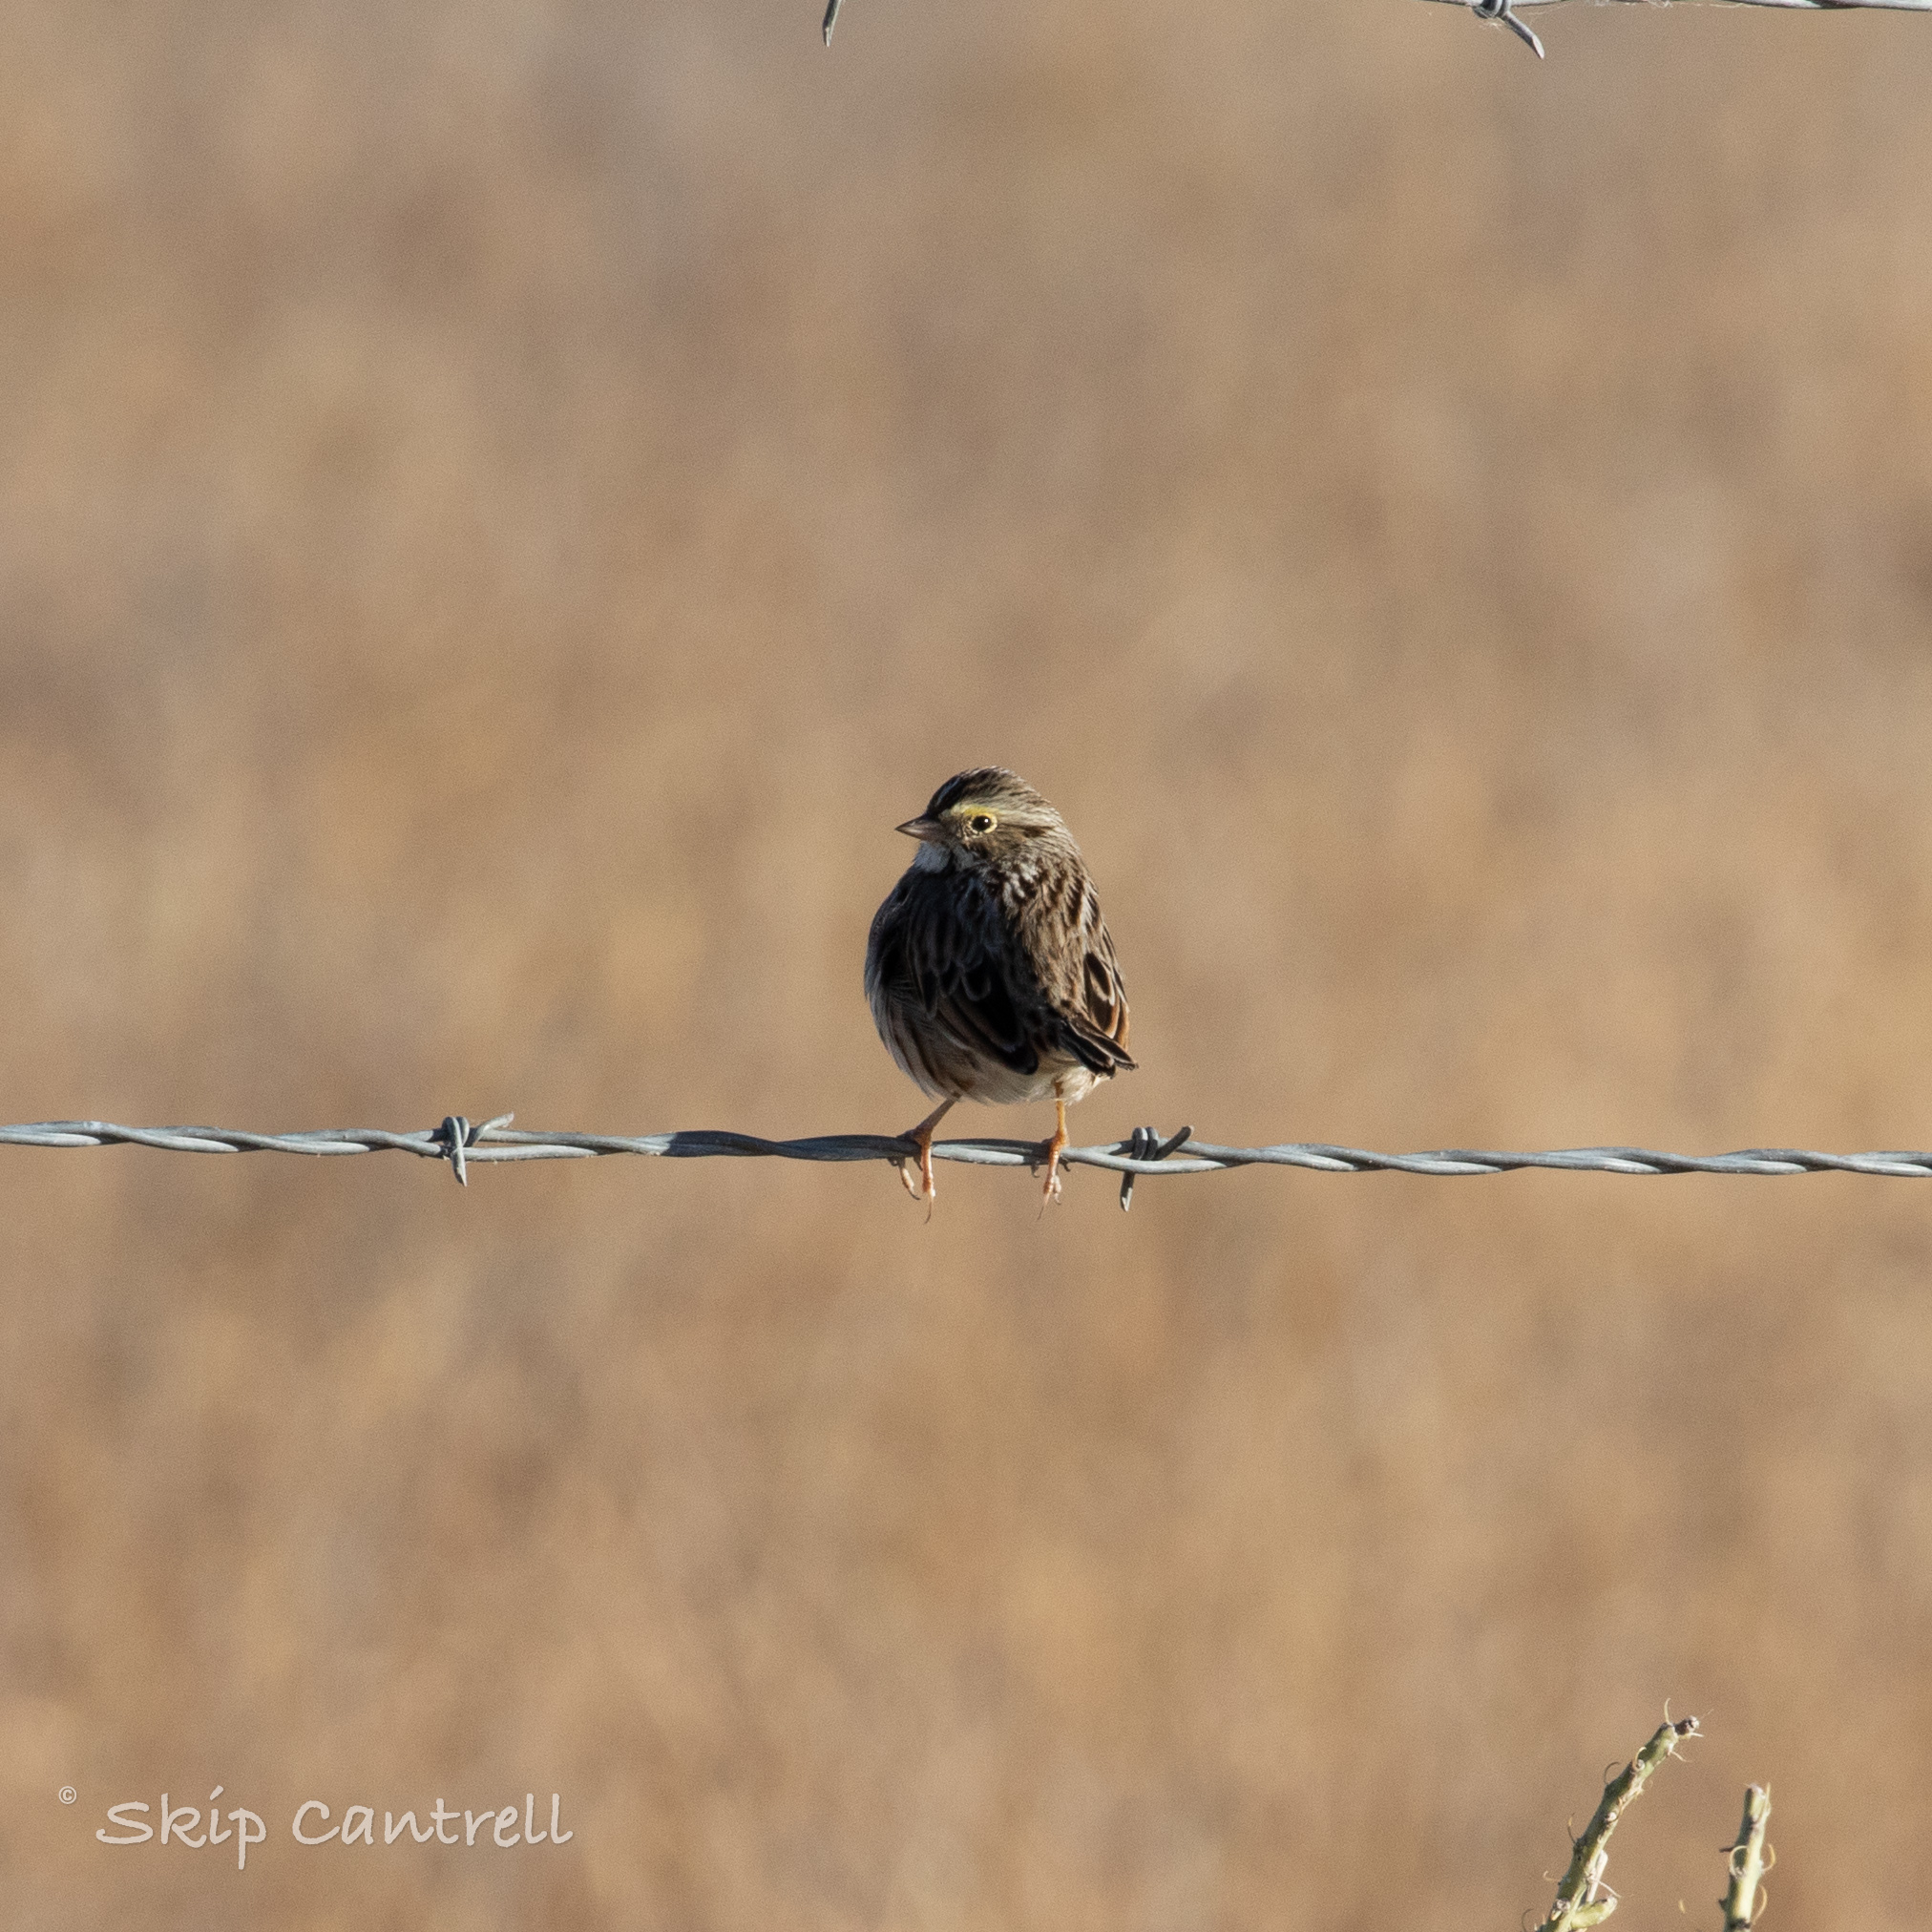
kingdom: Animalia
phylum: Chordata
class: Aves
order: Passeriformes
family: Passerellidae
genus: Passerculus
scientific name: Passerculus sandwichensis
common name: Savannah sparrow
